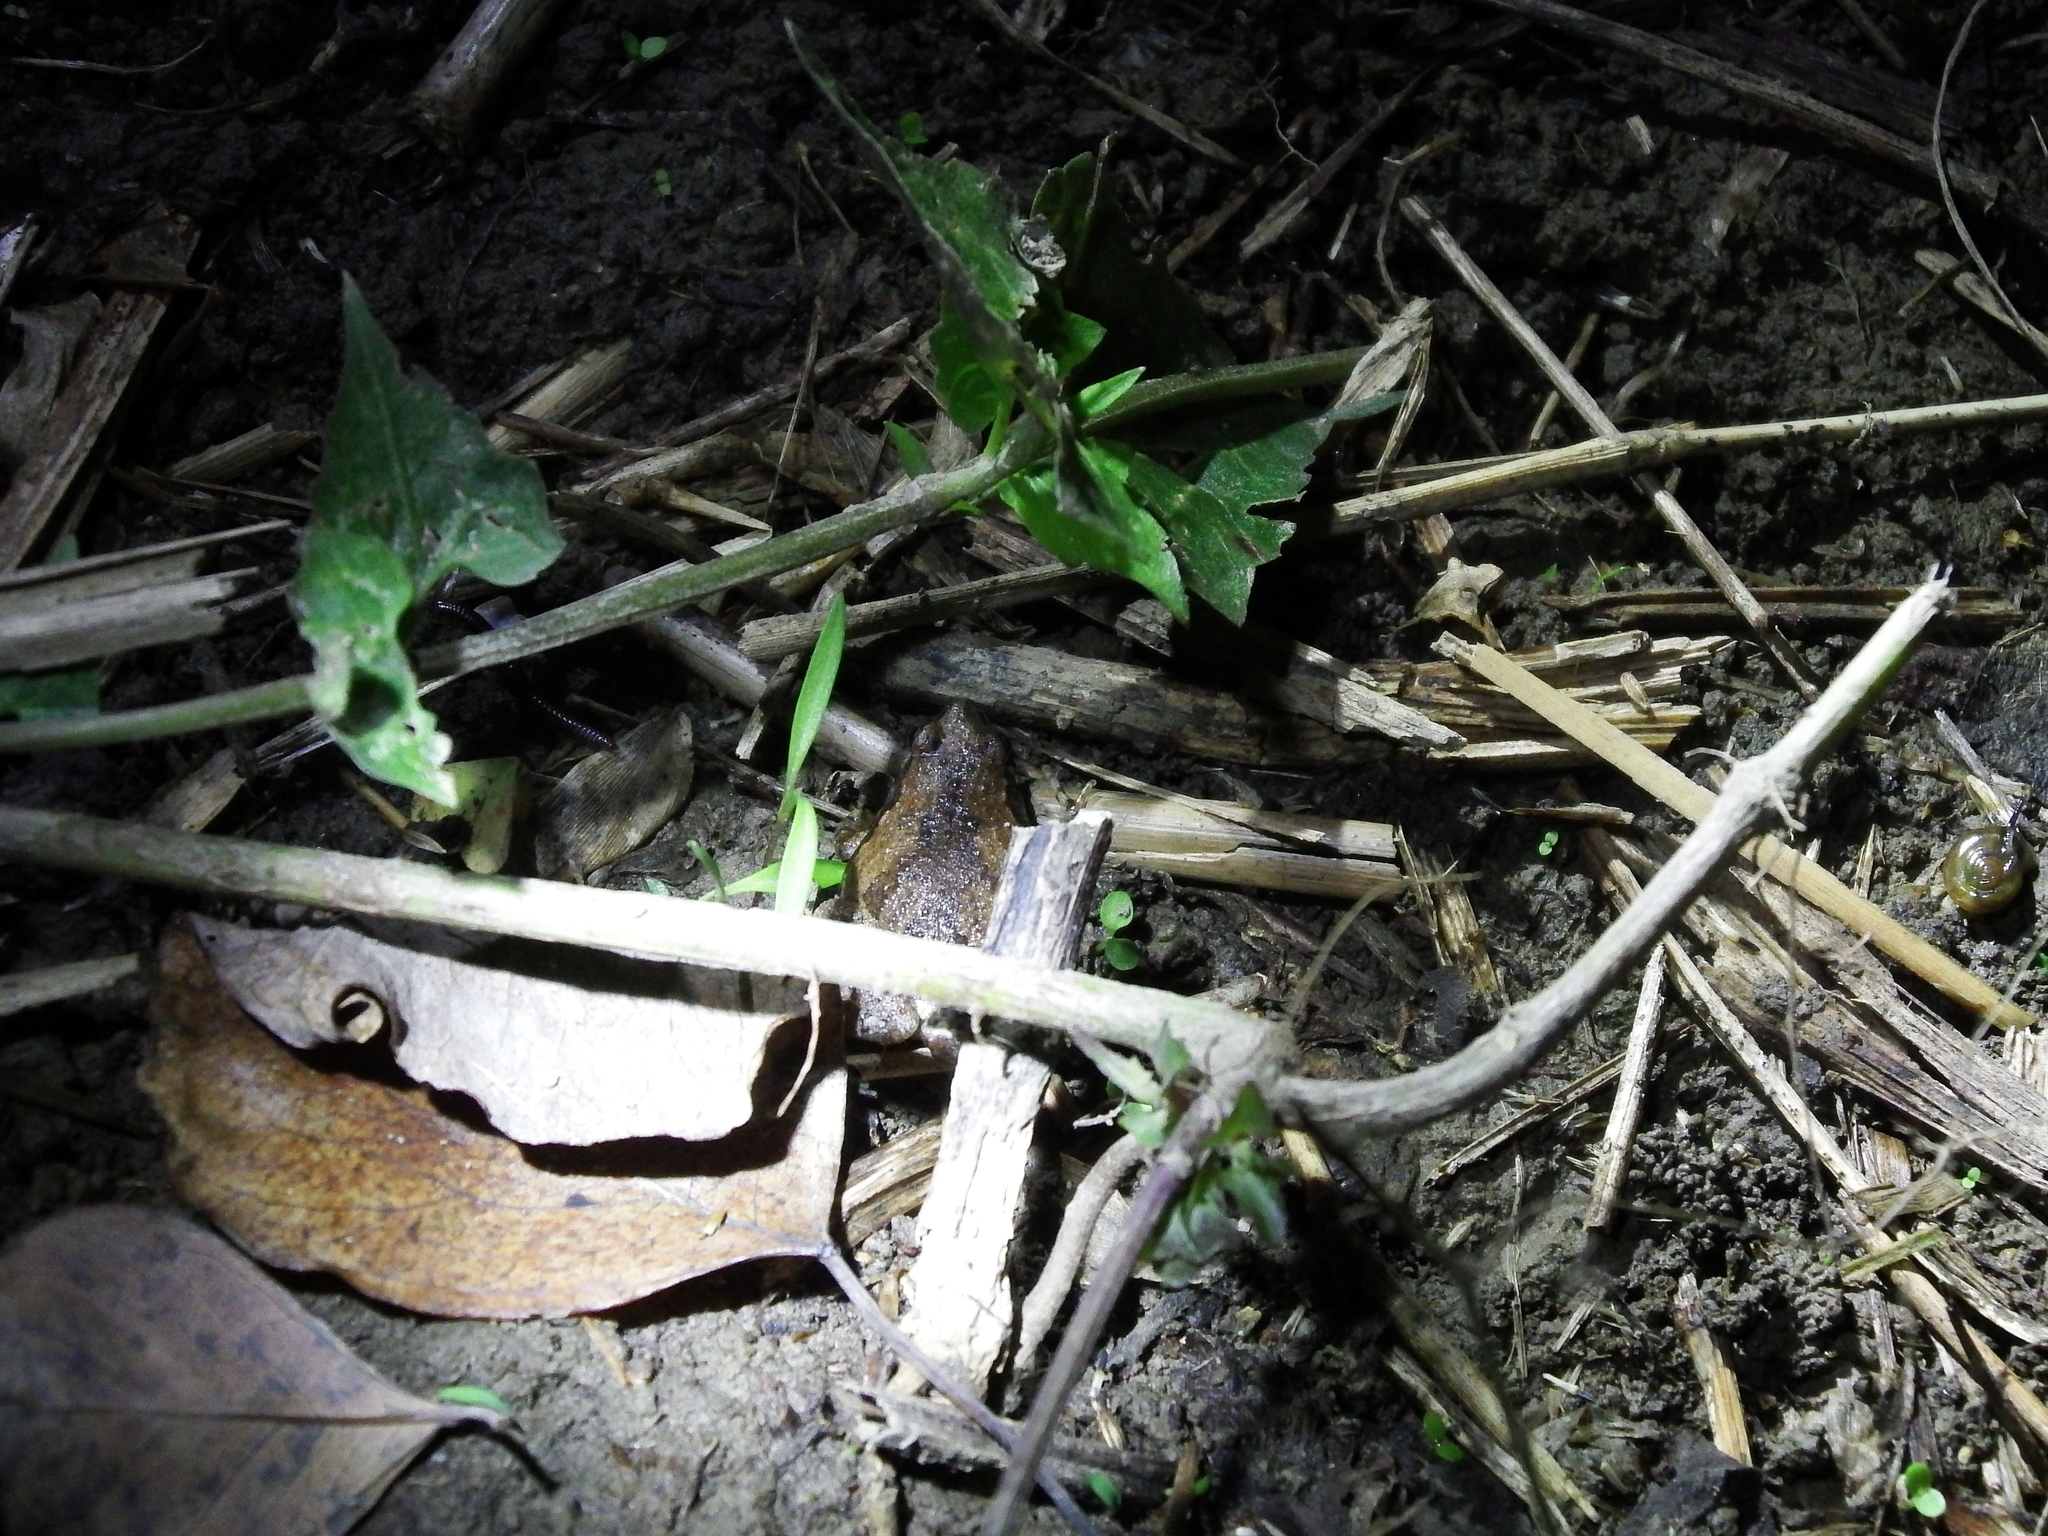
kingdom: Animalia
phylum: Chordata
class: Amphibia
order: Anura
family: Microhylidae
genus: Microhyla
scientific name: Microhyla fissipes
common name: Ornate narrow-mouthed frog
